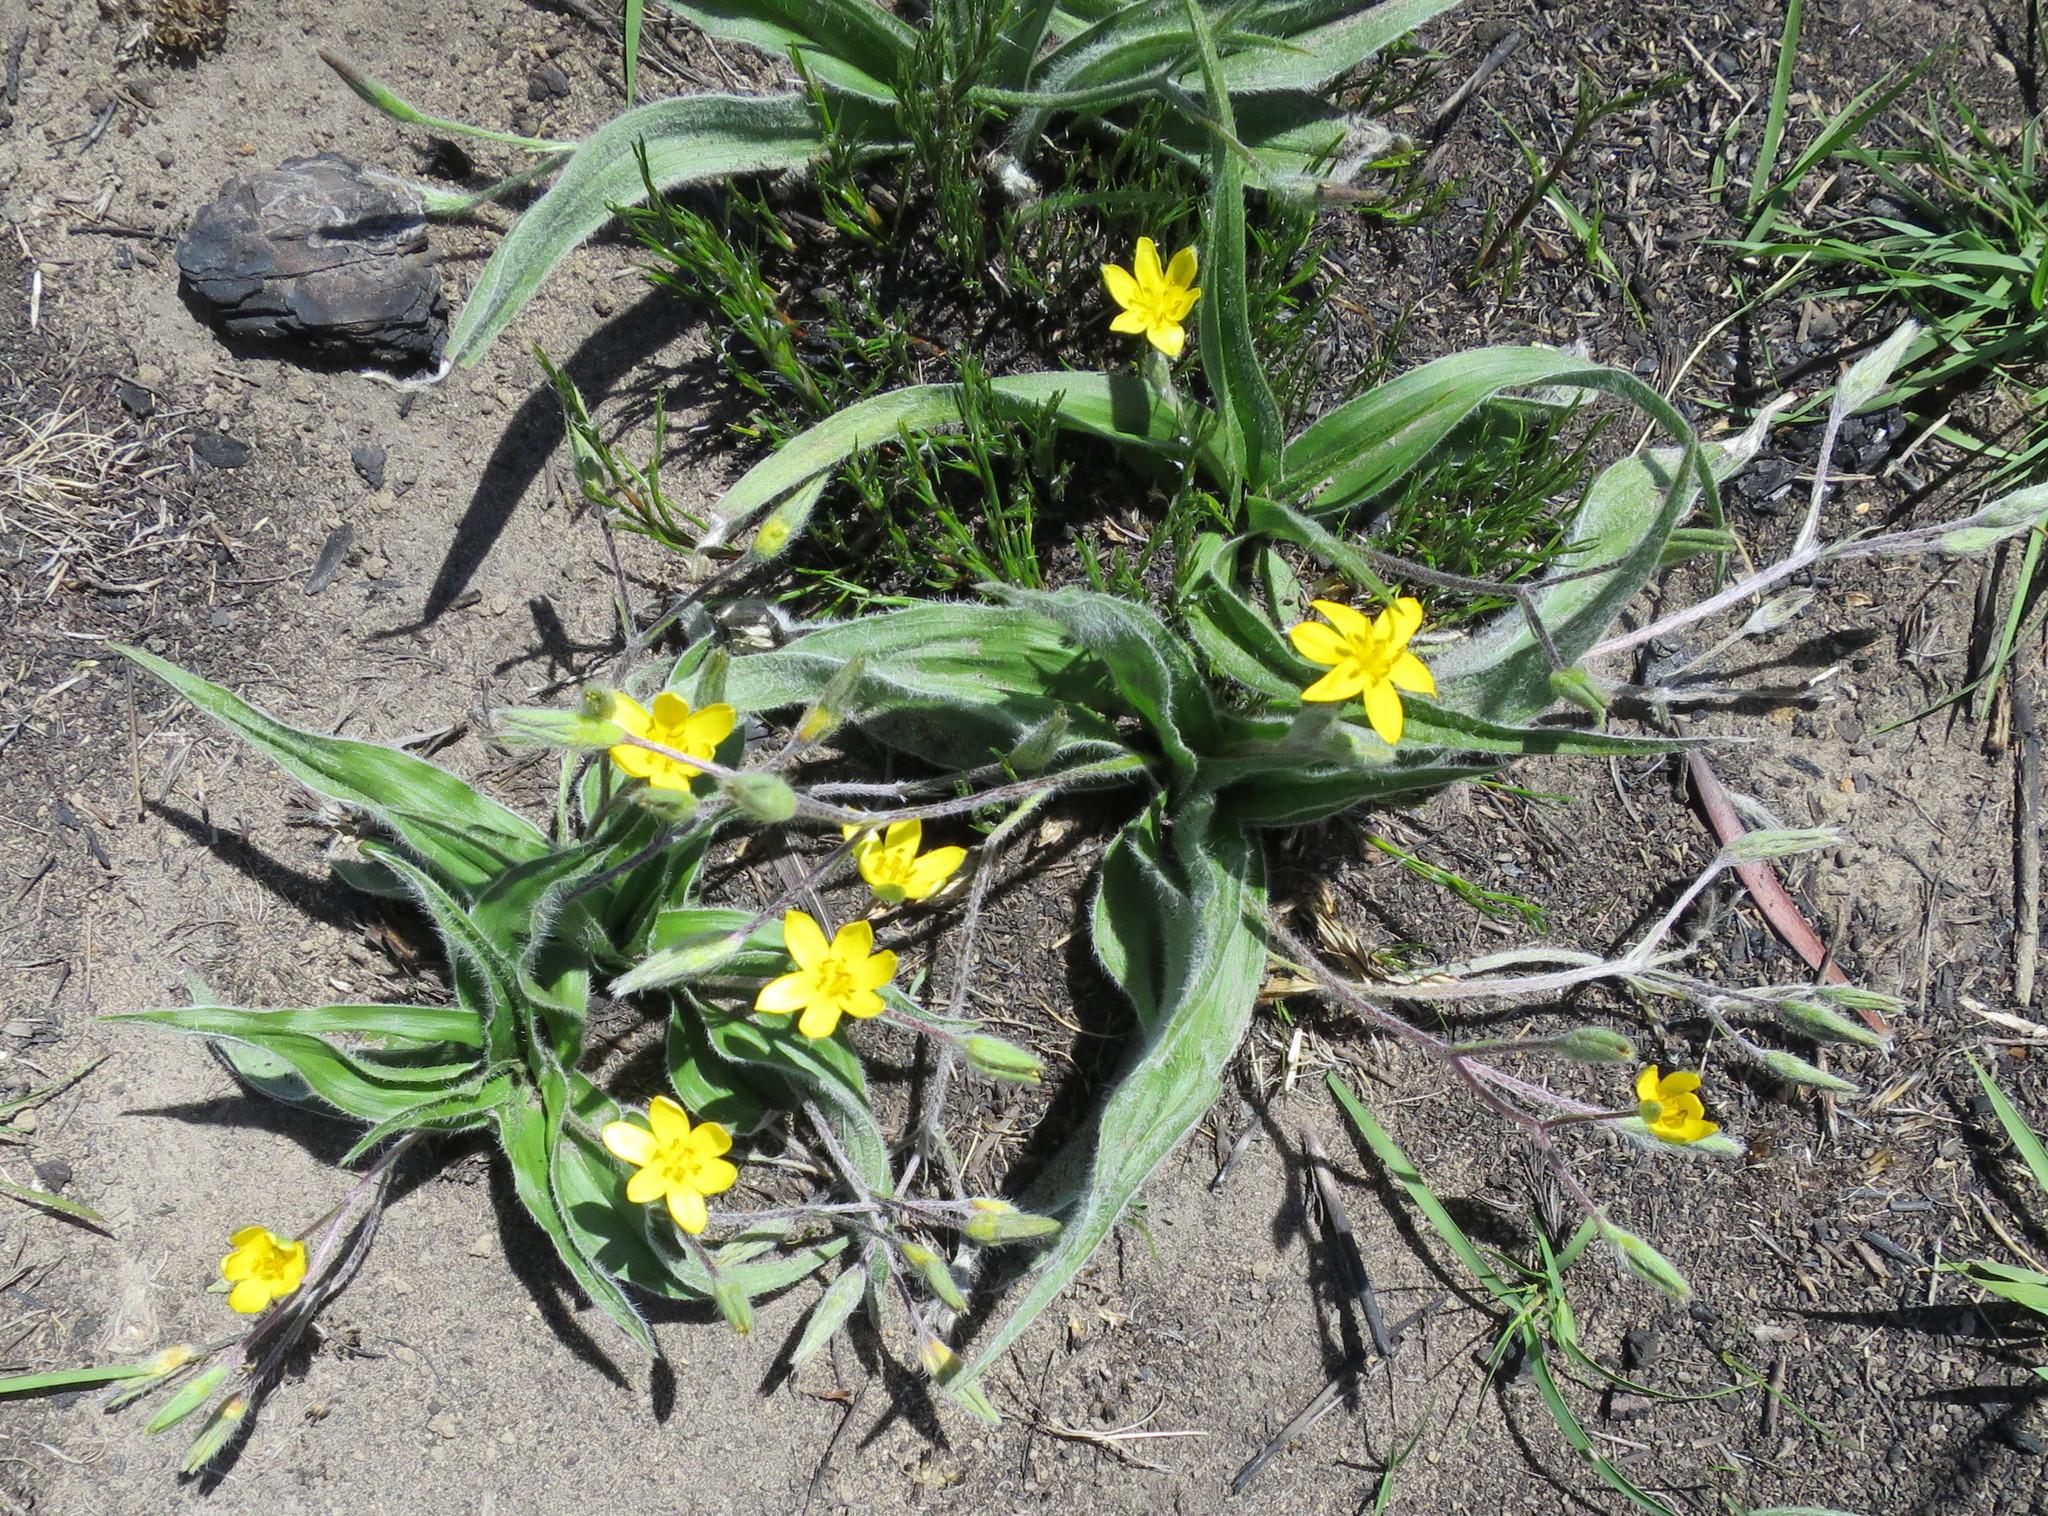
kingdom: Plantae
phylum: Tracheophyta
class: Liliopsida
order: Asparagales
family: Hypoxidaceae
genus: Hypoxis
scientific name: Hypoxis villosa
